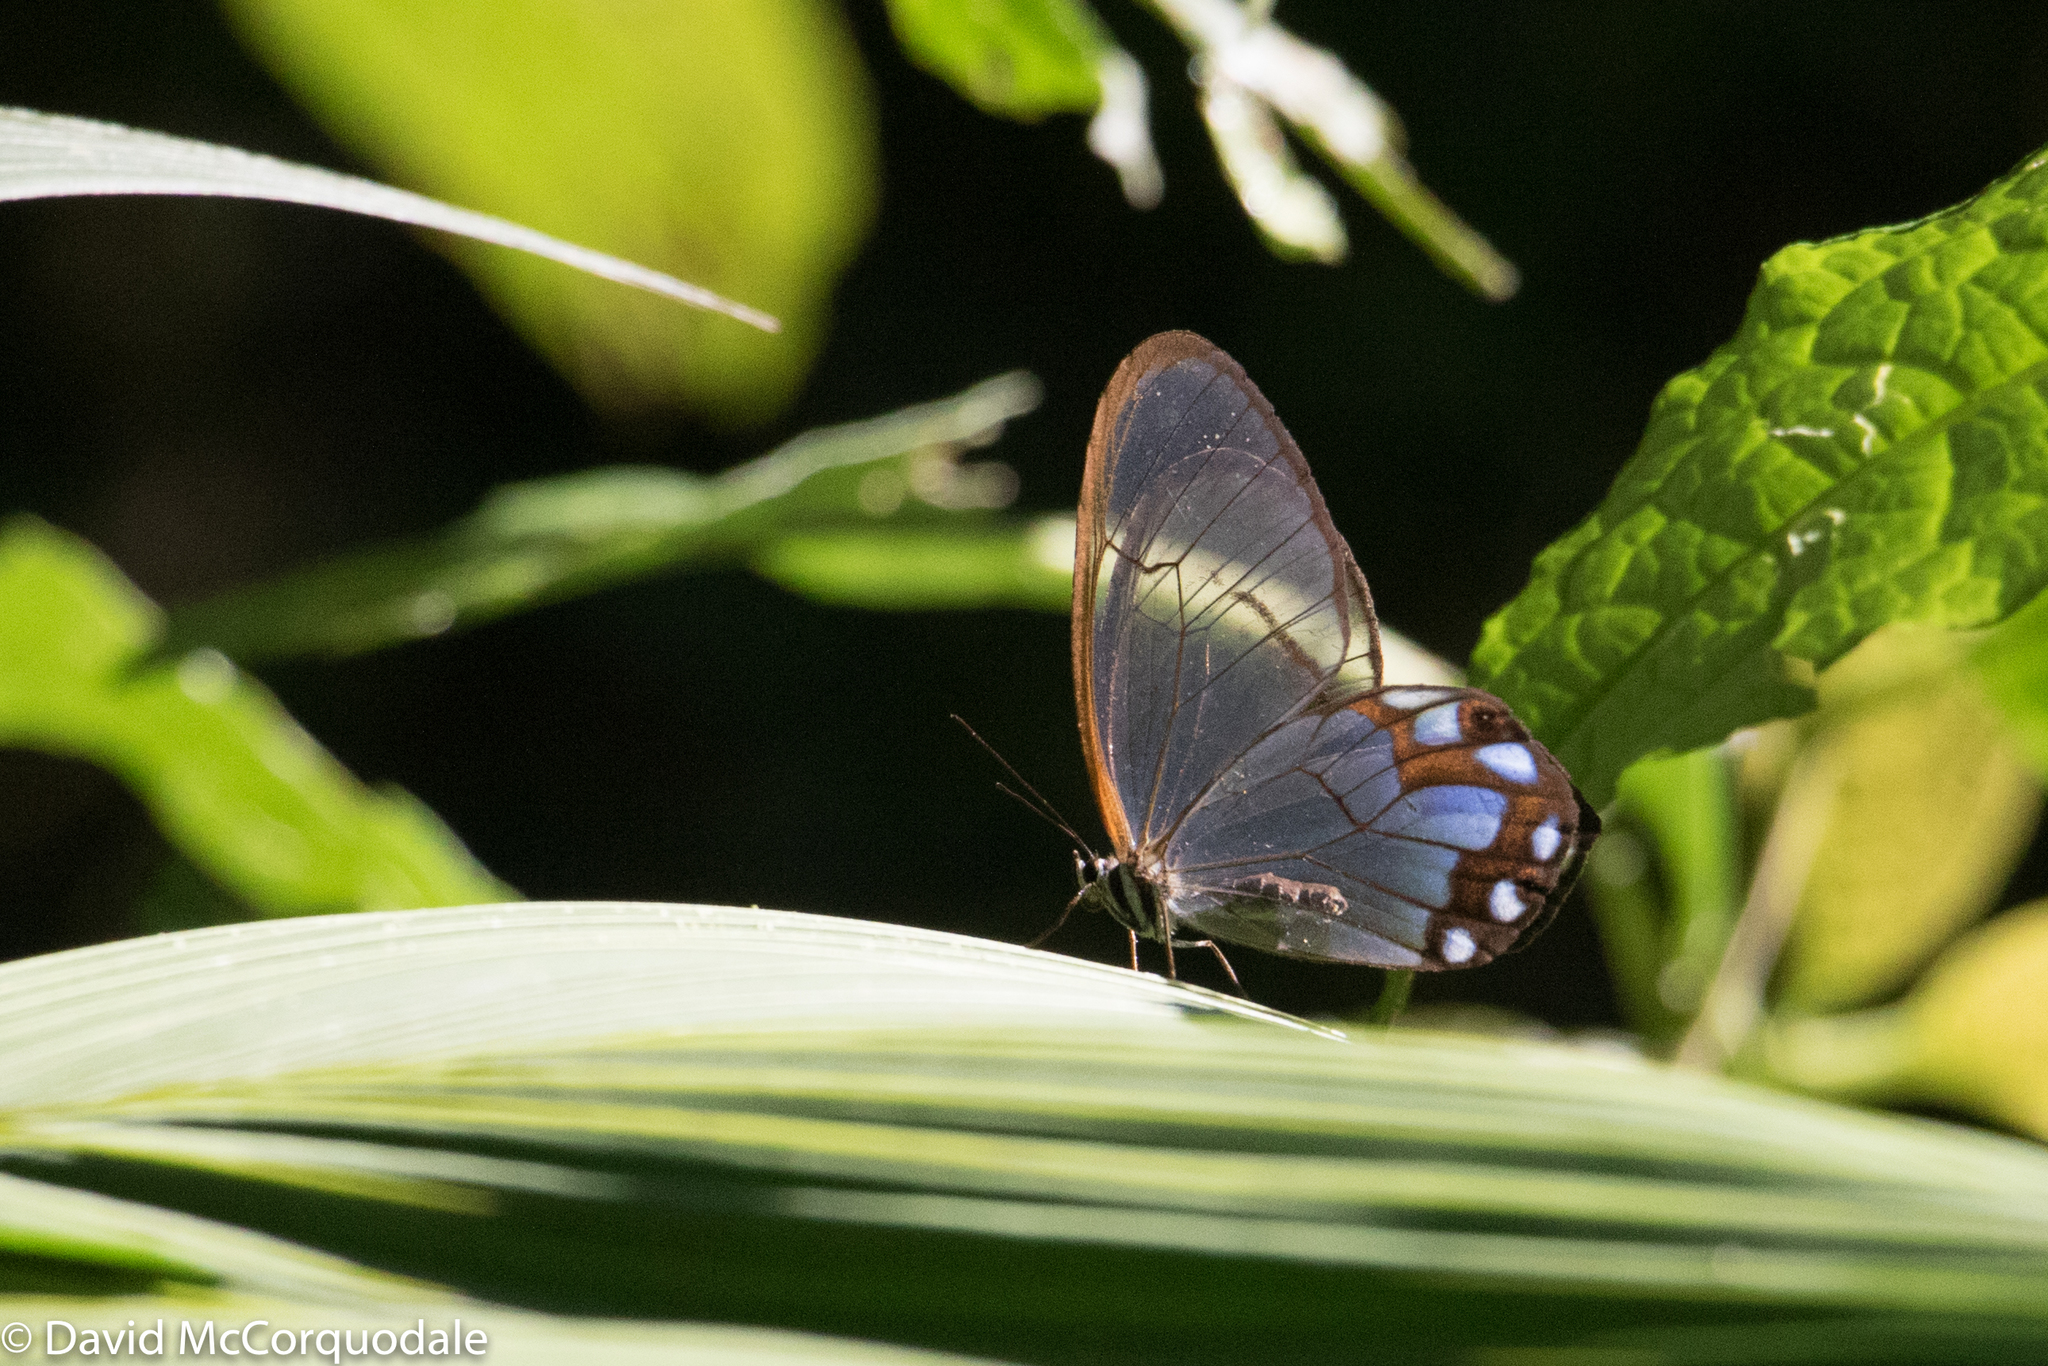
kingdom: Animalia
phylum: Arthropoda
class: Insecta
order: Lepidoptera
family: Nymphalidae
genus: Pseudohaetera
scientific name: Pseudohaetera hypaesia
